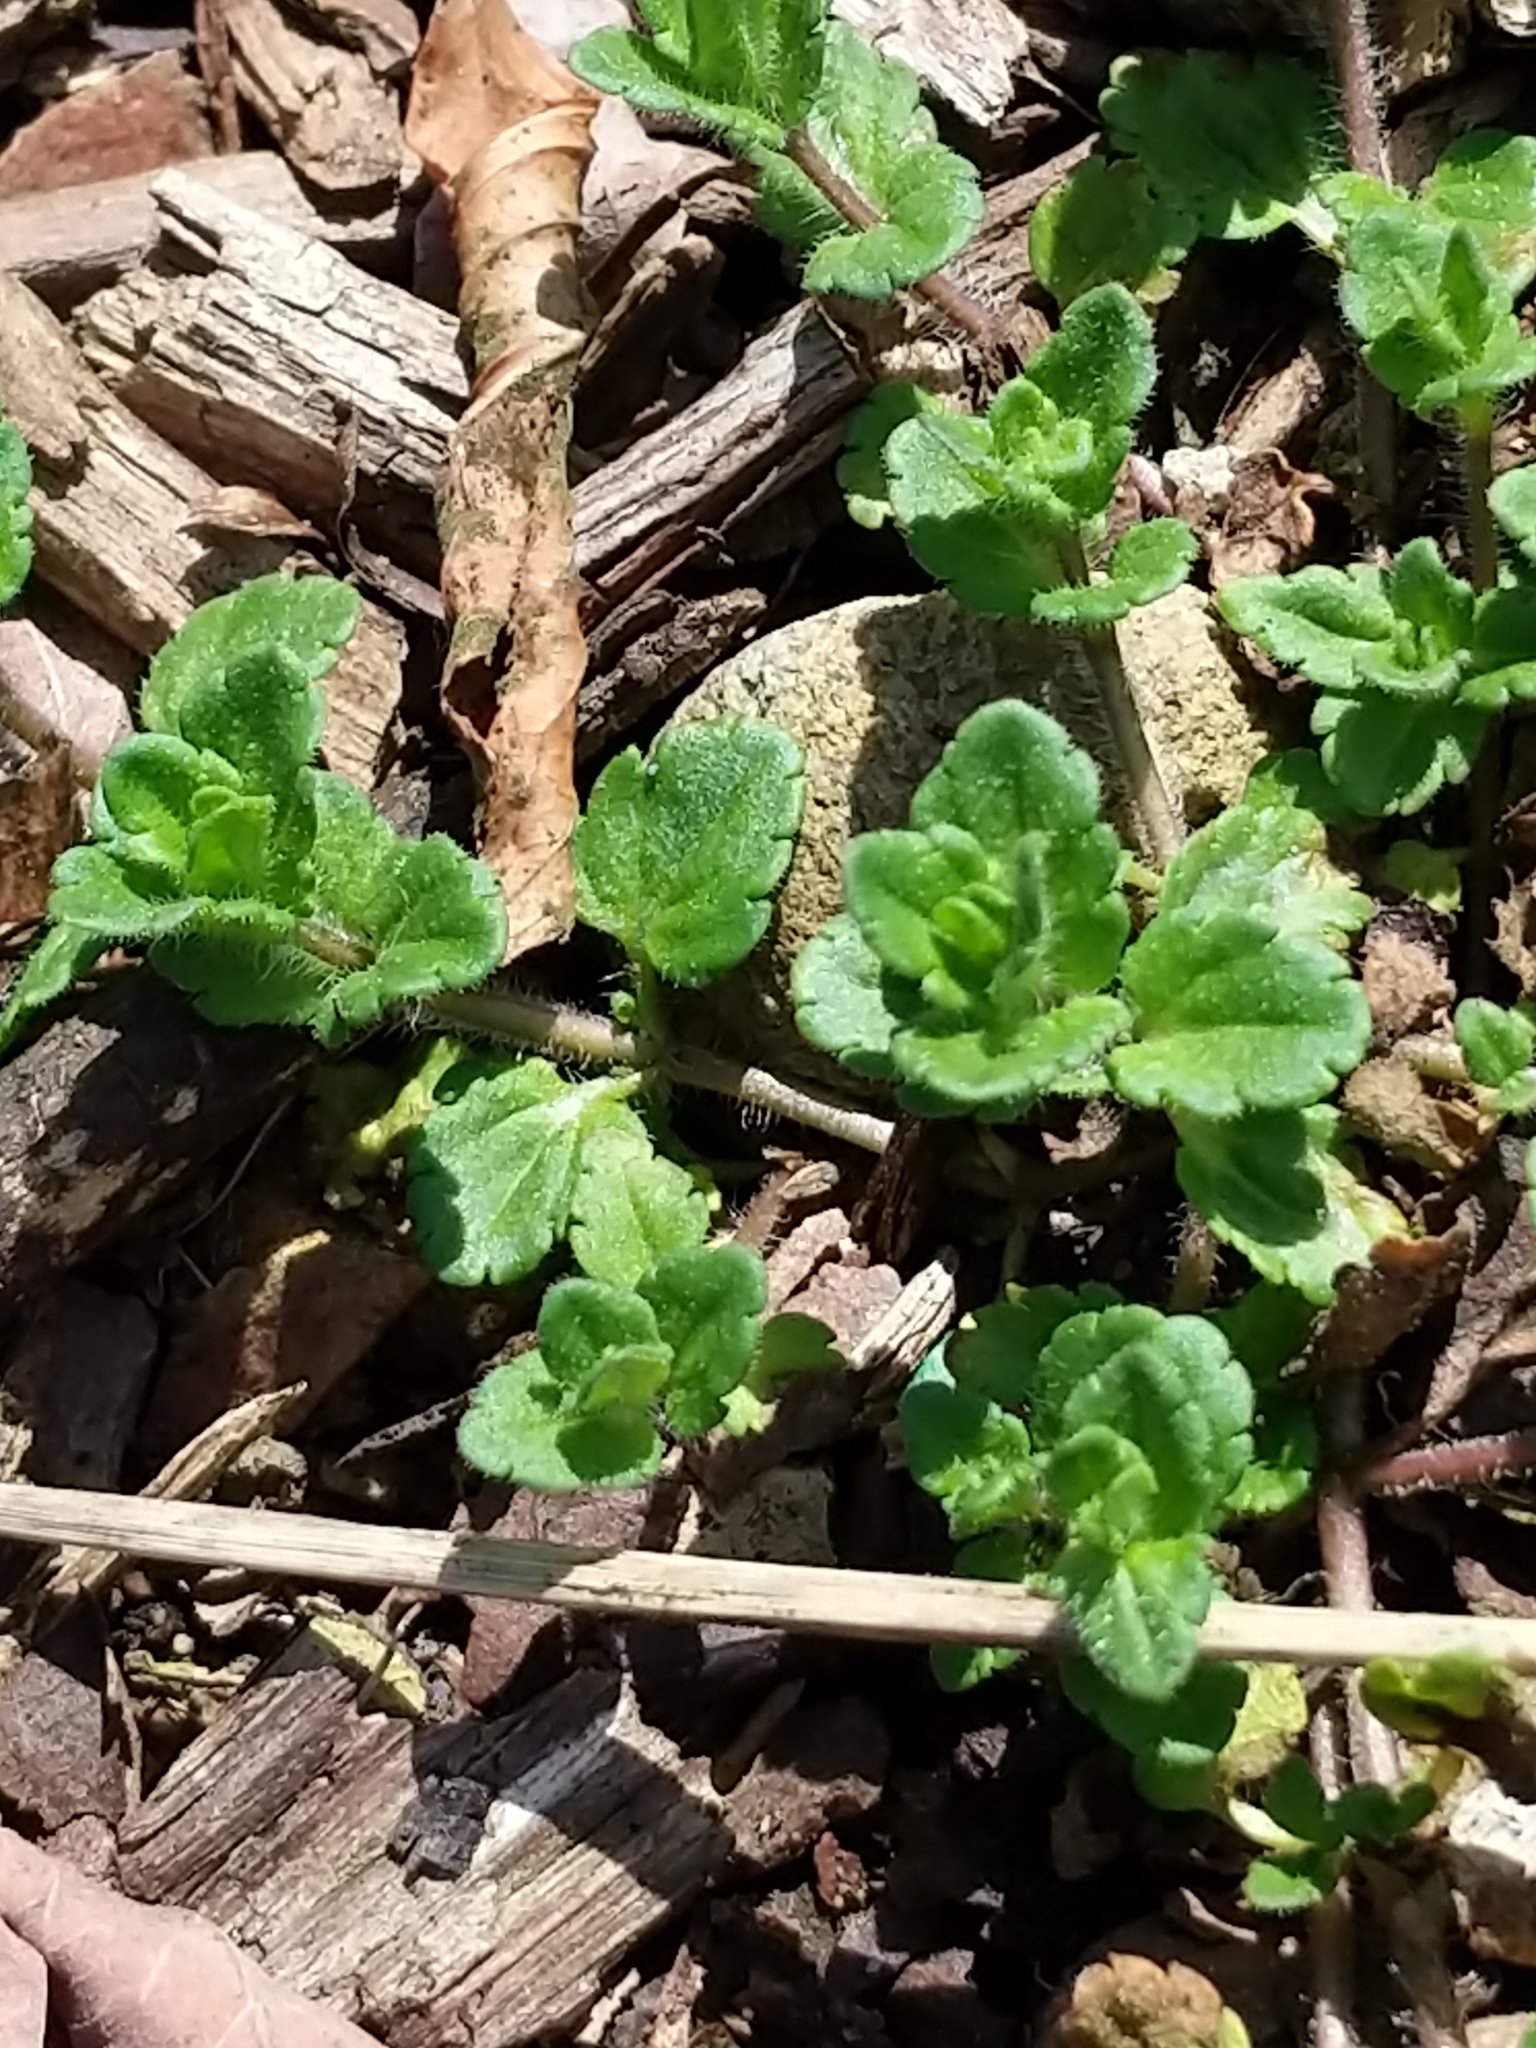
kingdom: Plantae
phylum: Tracheophyta
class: Magnoliopsida
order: Lamiales
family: Plantaginaceae
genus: Veronica
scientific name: Veronica arvensis
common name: Corn speedwell
